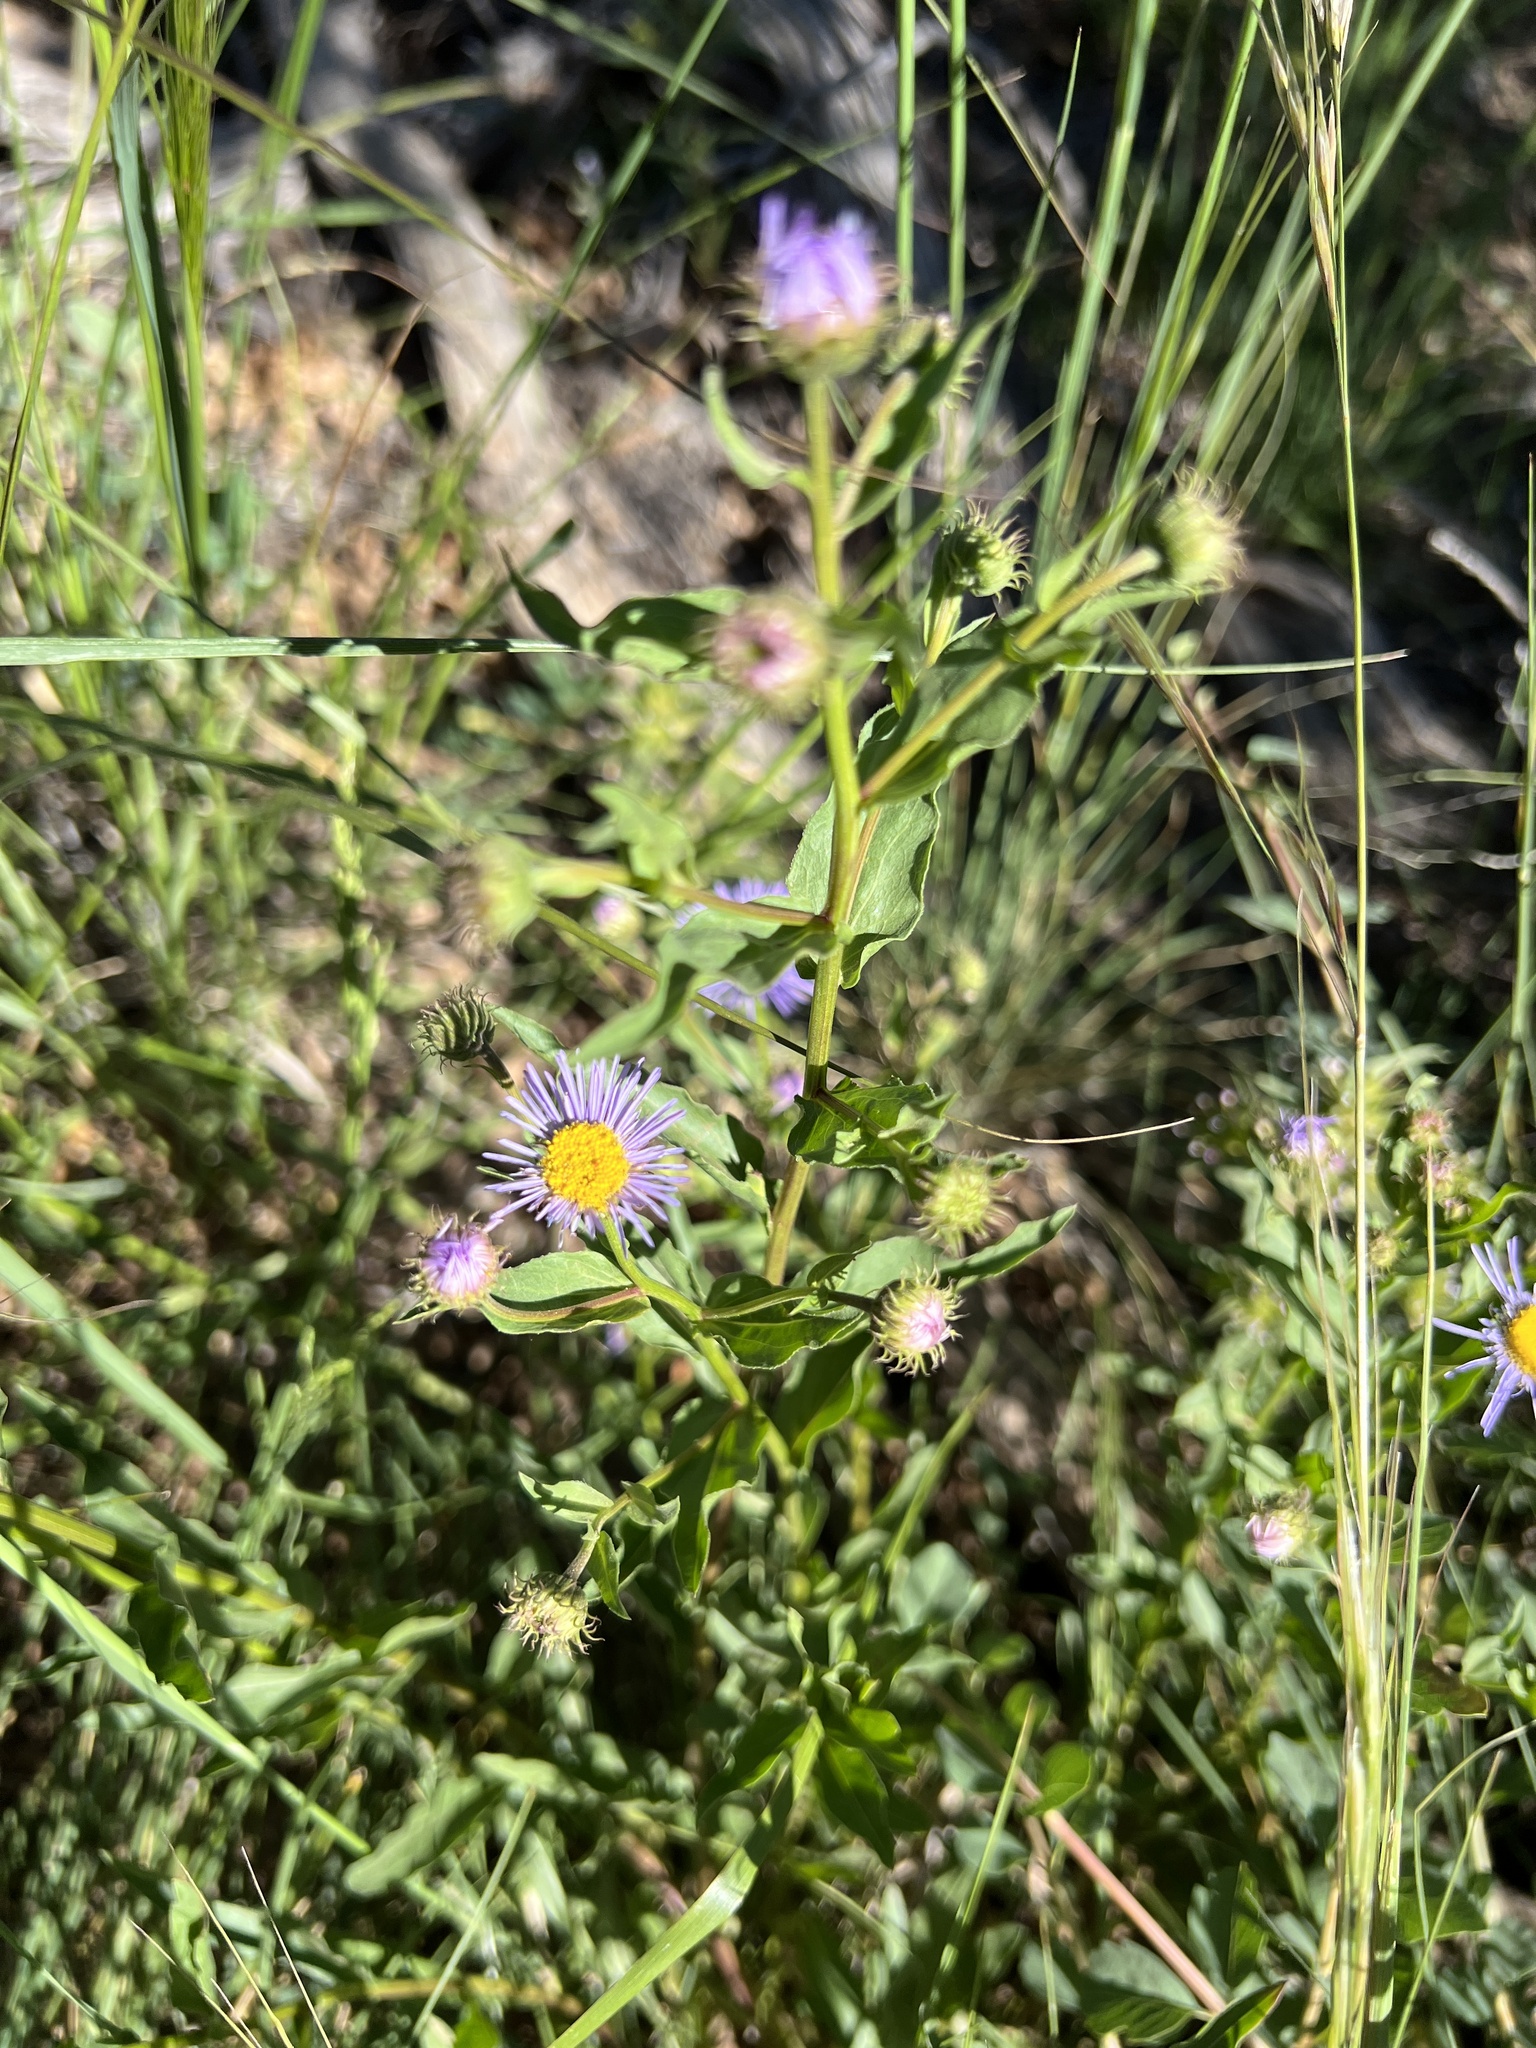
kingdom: Plantae
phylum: Tracheophyta
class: Magnoliopsida
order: Asterales
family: Asteraceae
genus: Erigeron
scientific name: Erigeron speciosus
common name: Aspen fleabane
